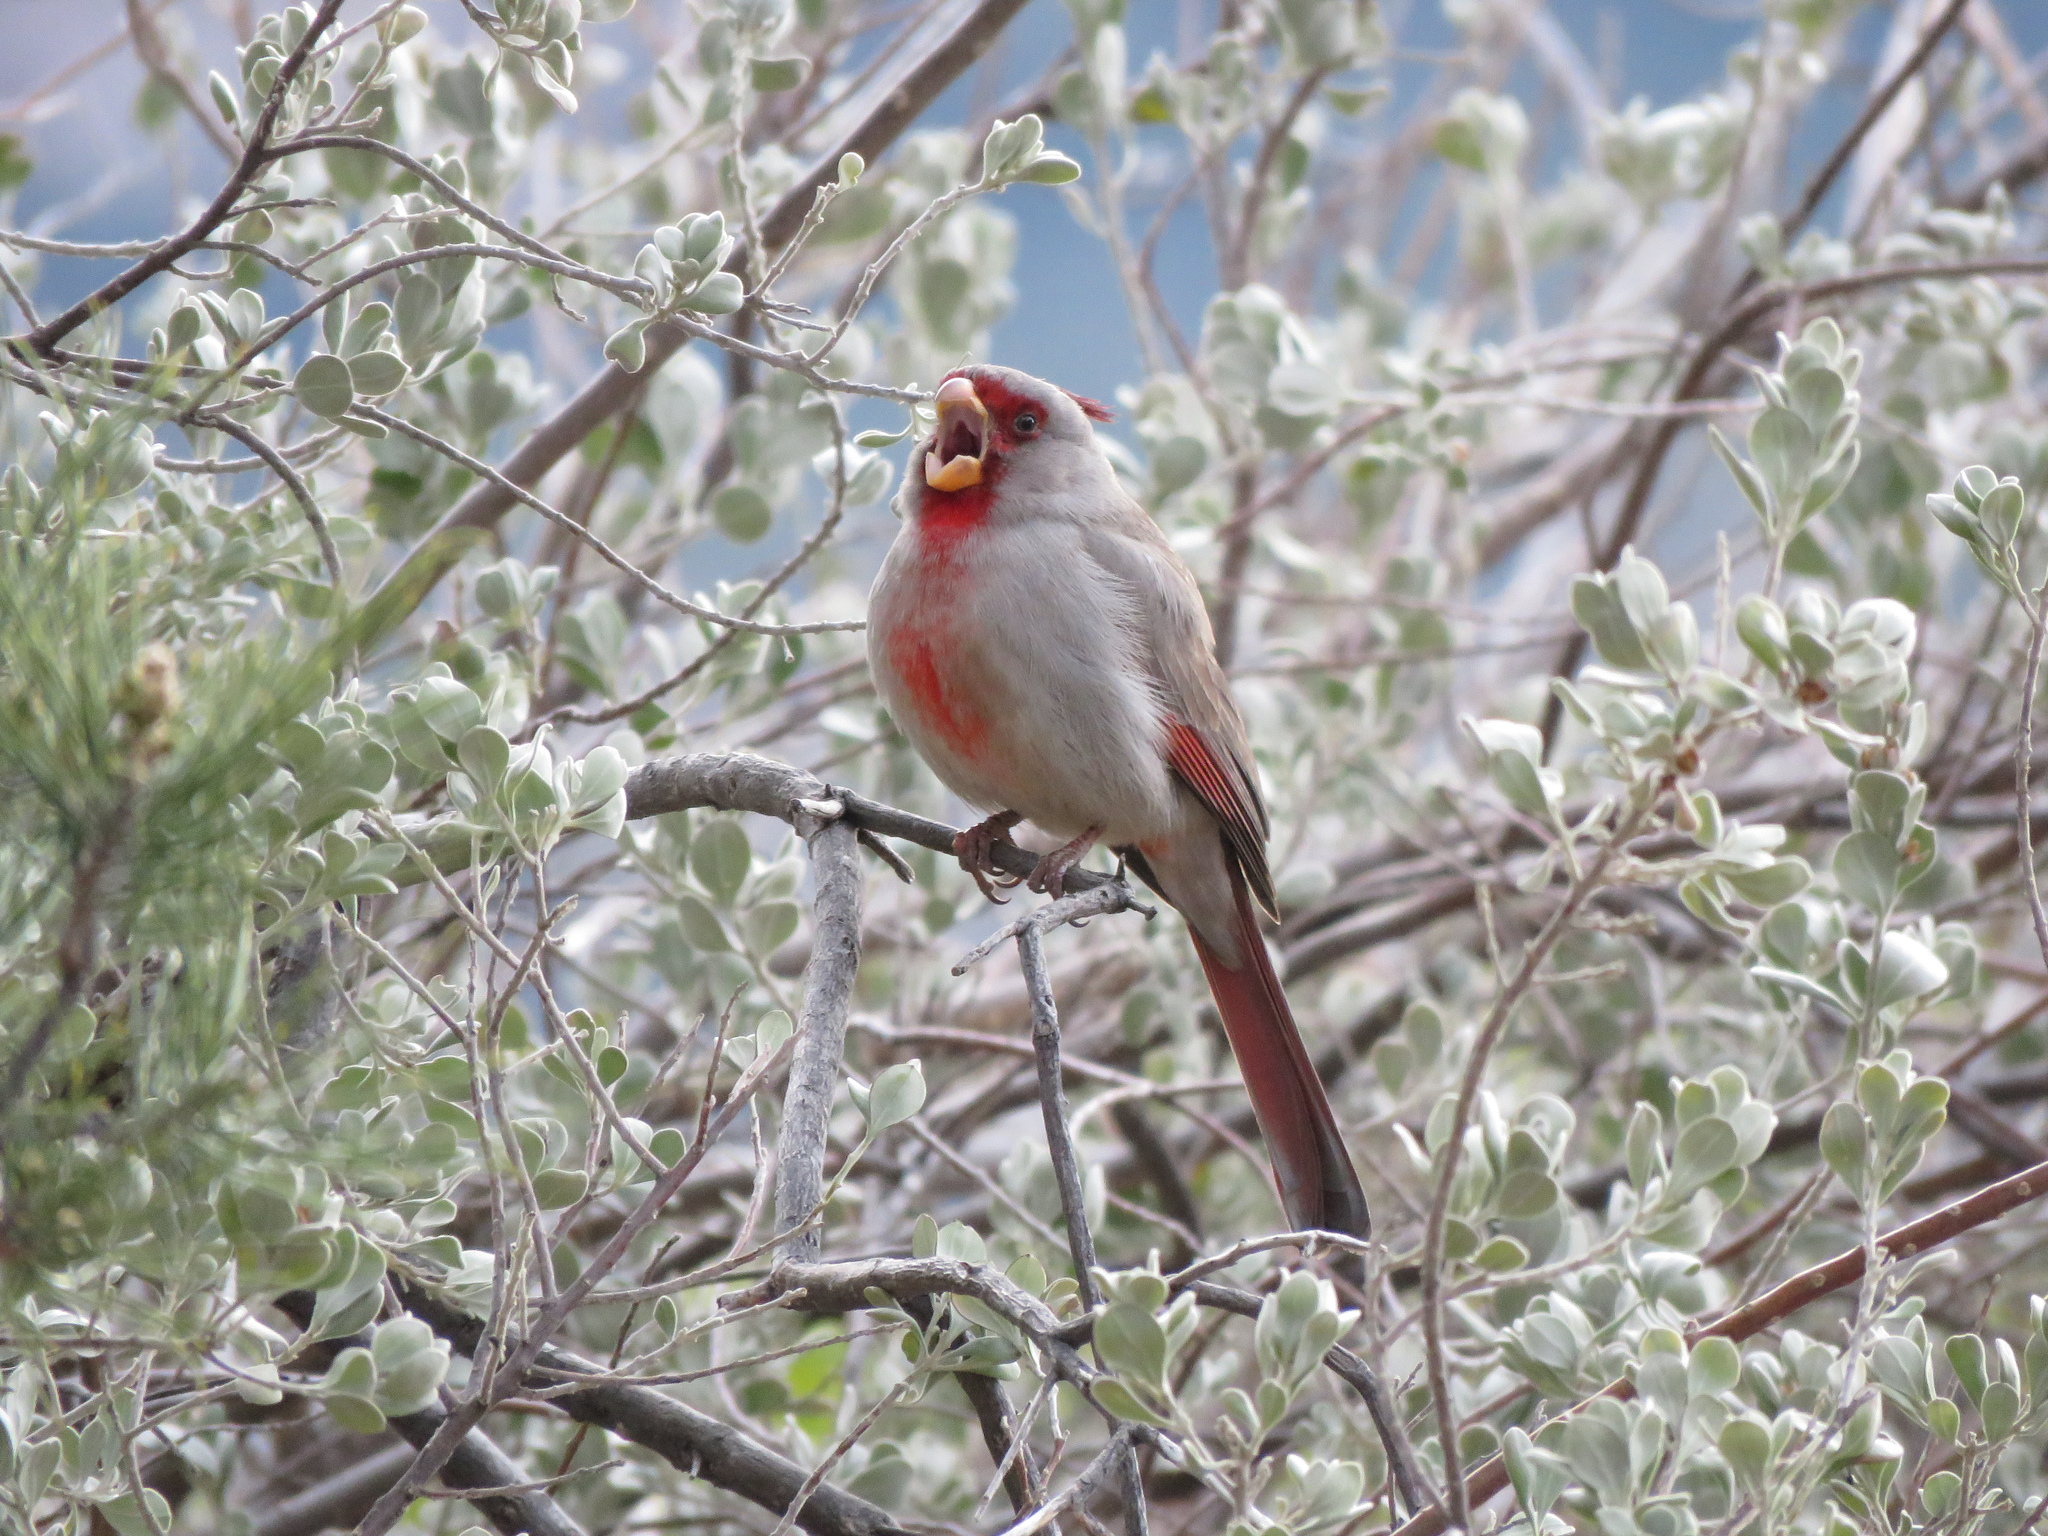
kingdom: Animalia
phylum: Chordata
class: Aves
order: Passeriformes
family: Cardinalidae
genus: Cardinalis
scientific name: Cardinalis sinuatus
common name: Pyrrhuloxia
